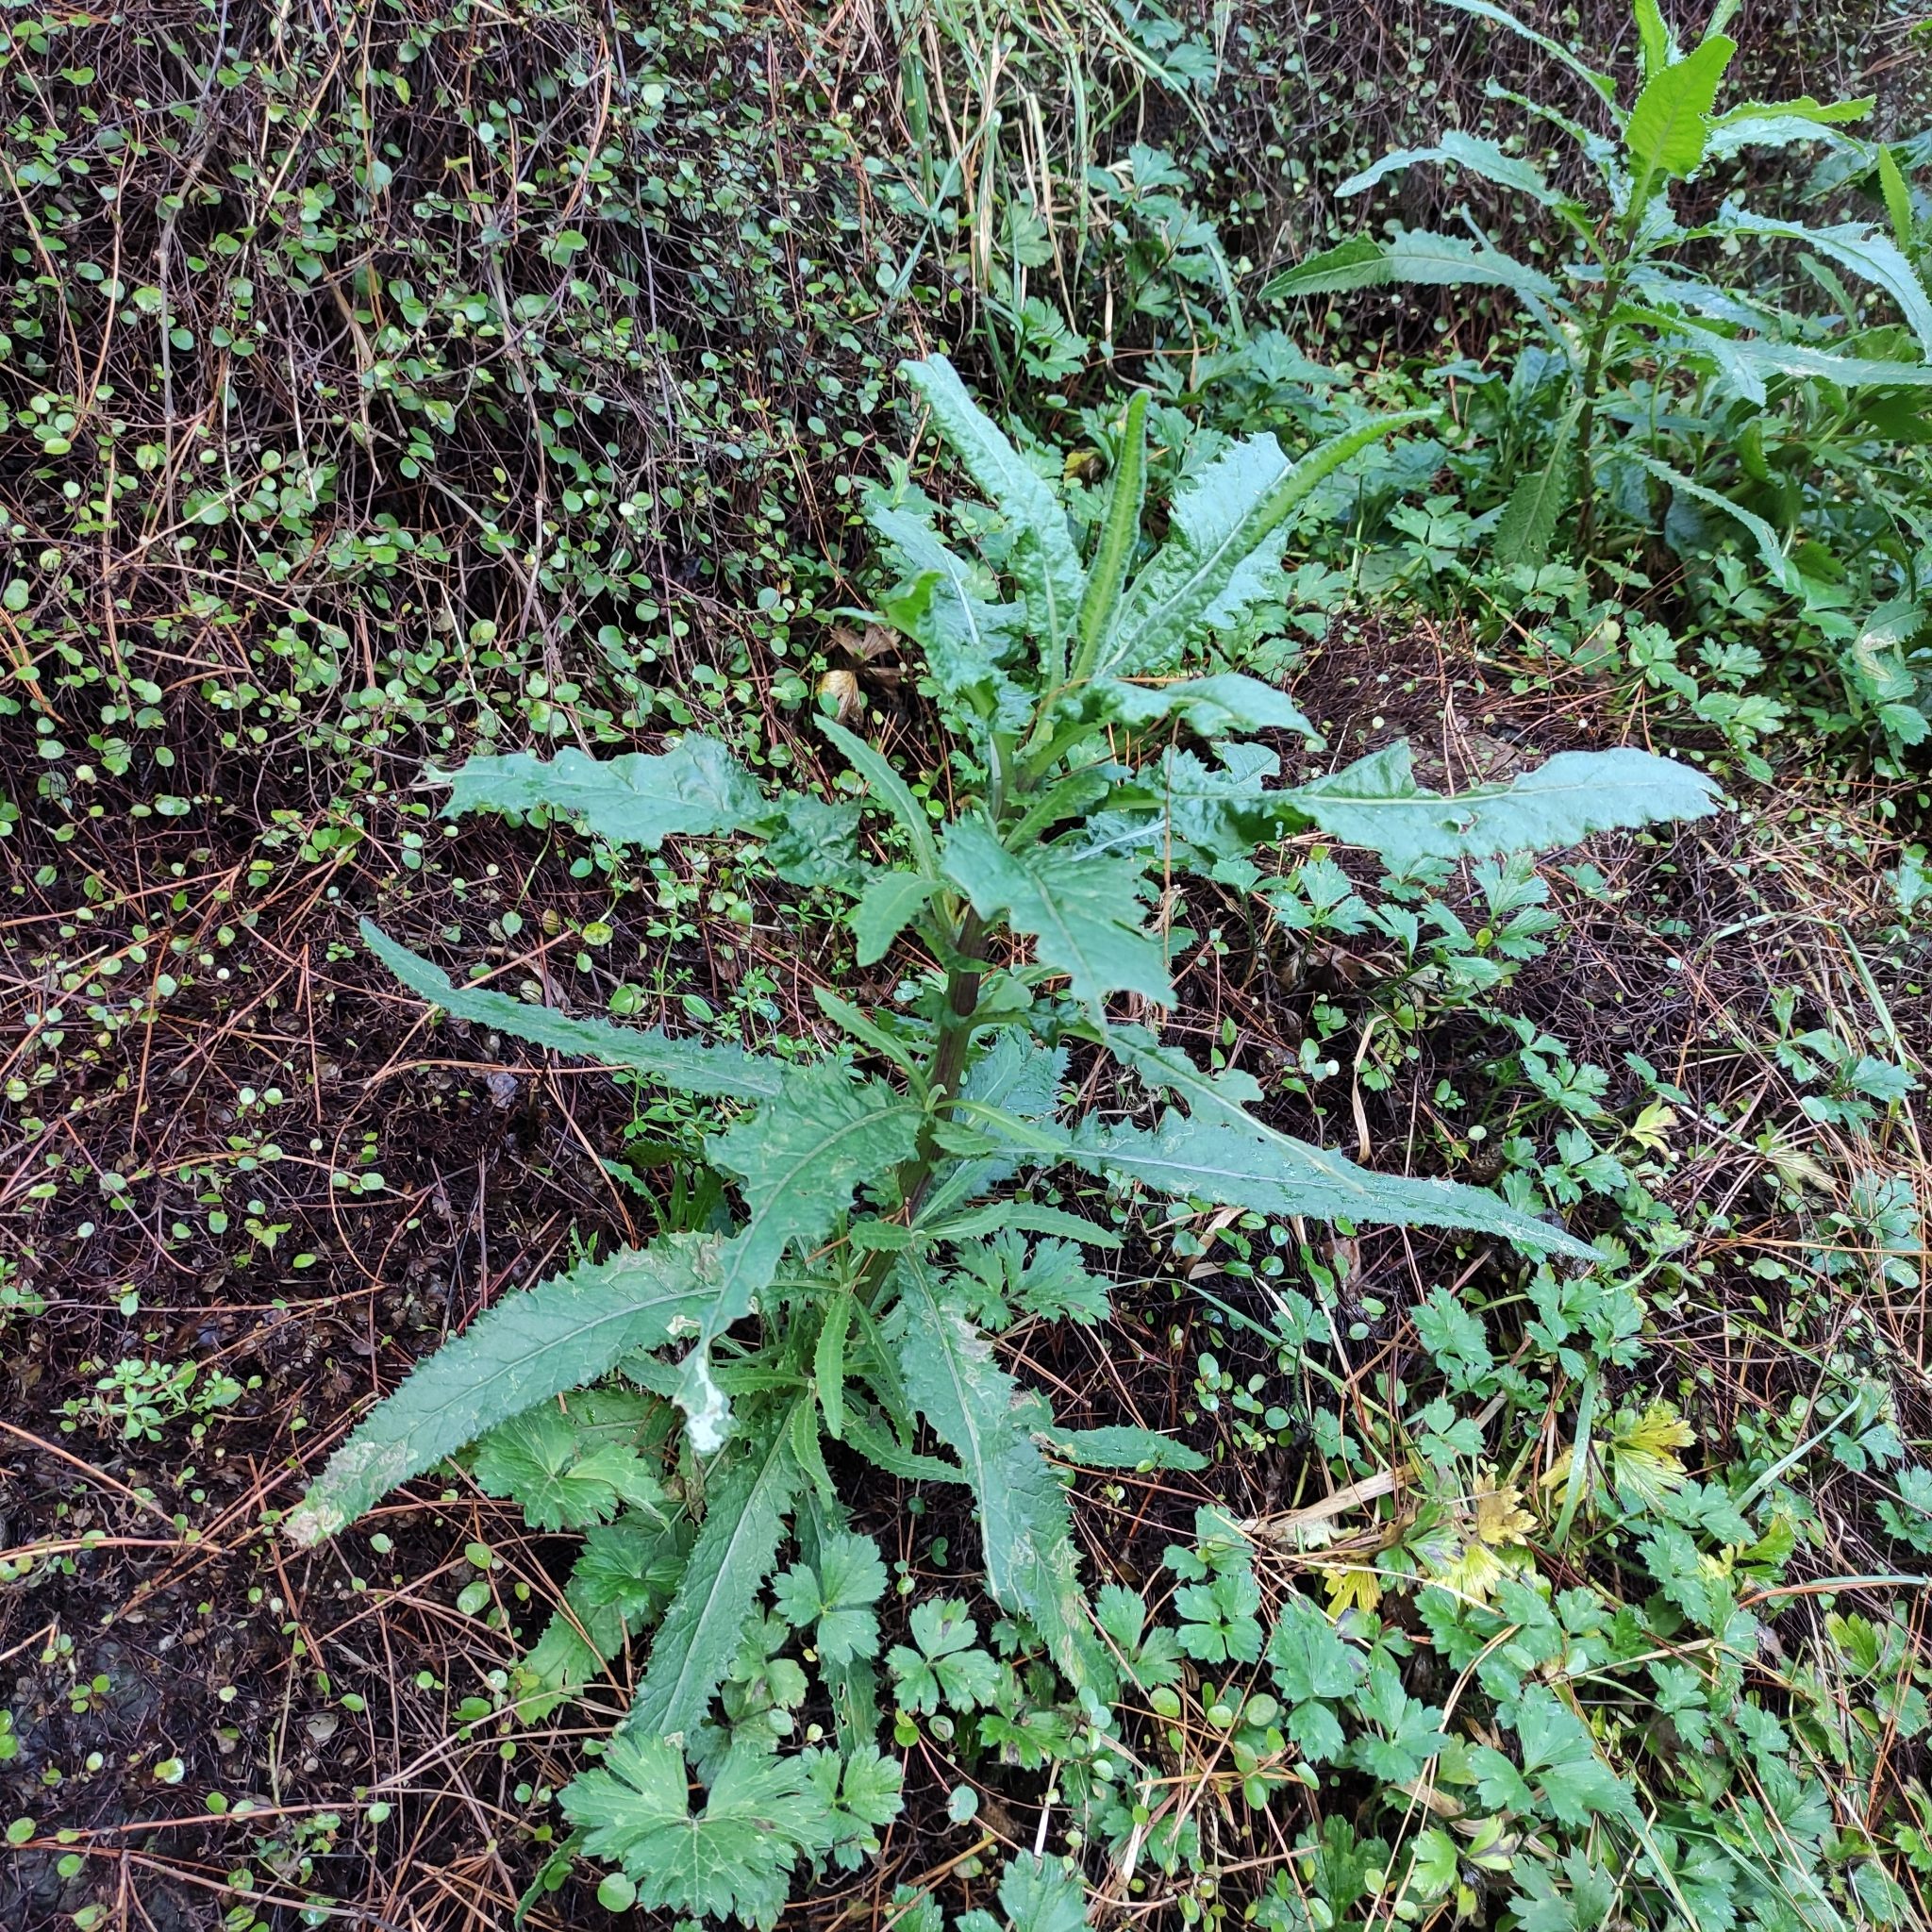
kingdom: Plantae
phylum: Tracheophyta
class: Magnoliopsida
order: Asterales
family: Asteraceae
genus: Senecio
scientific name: Senecio minimus
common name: Toothed fireweed
